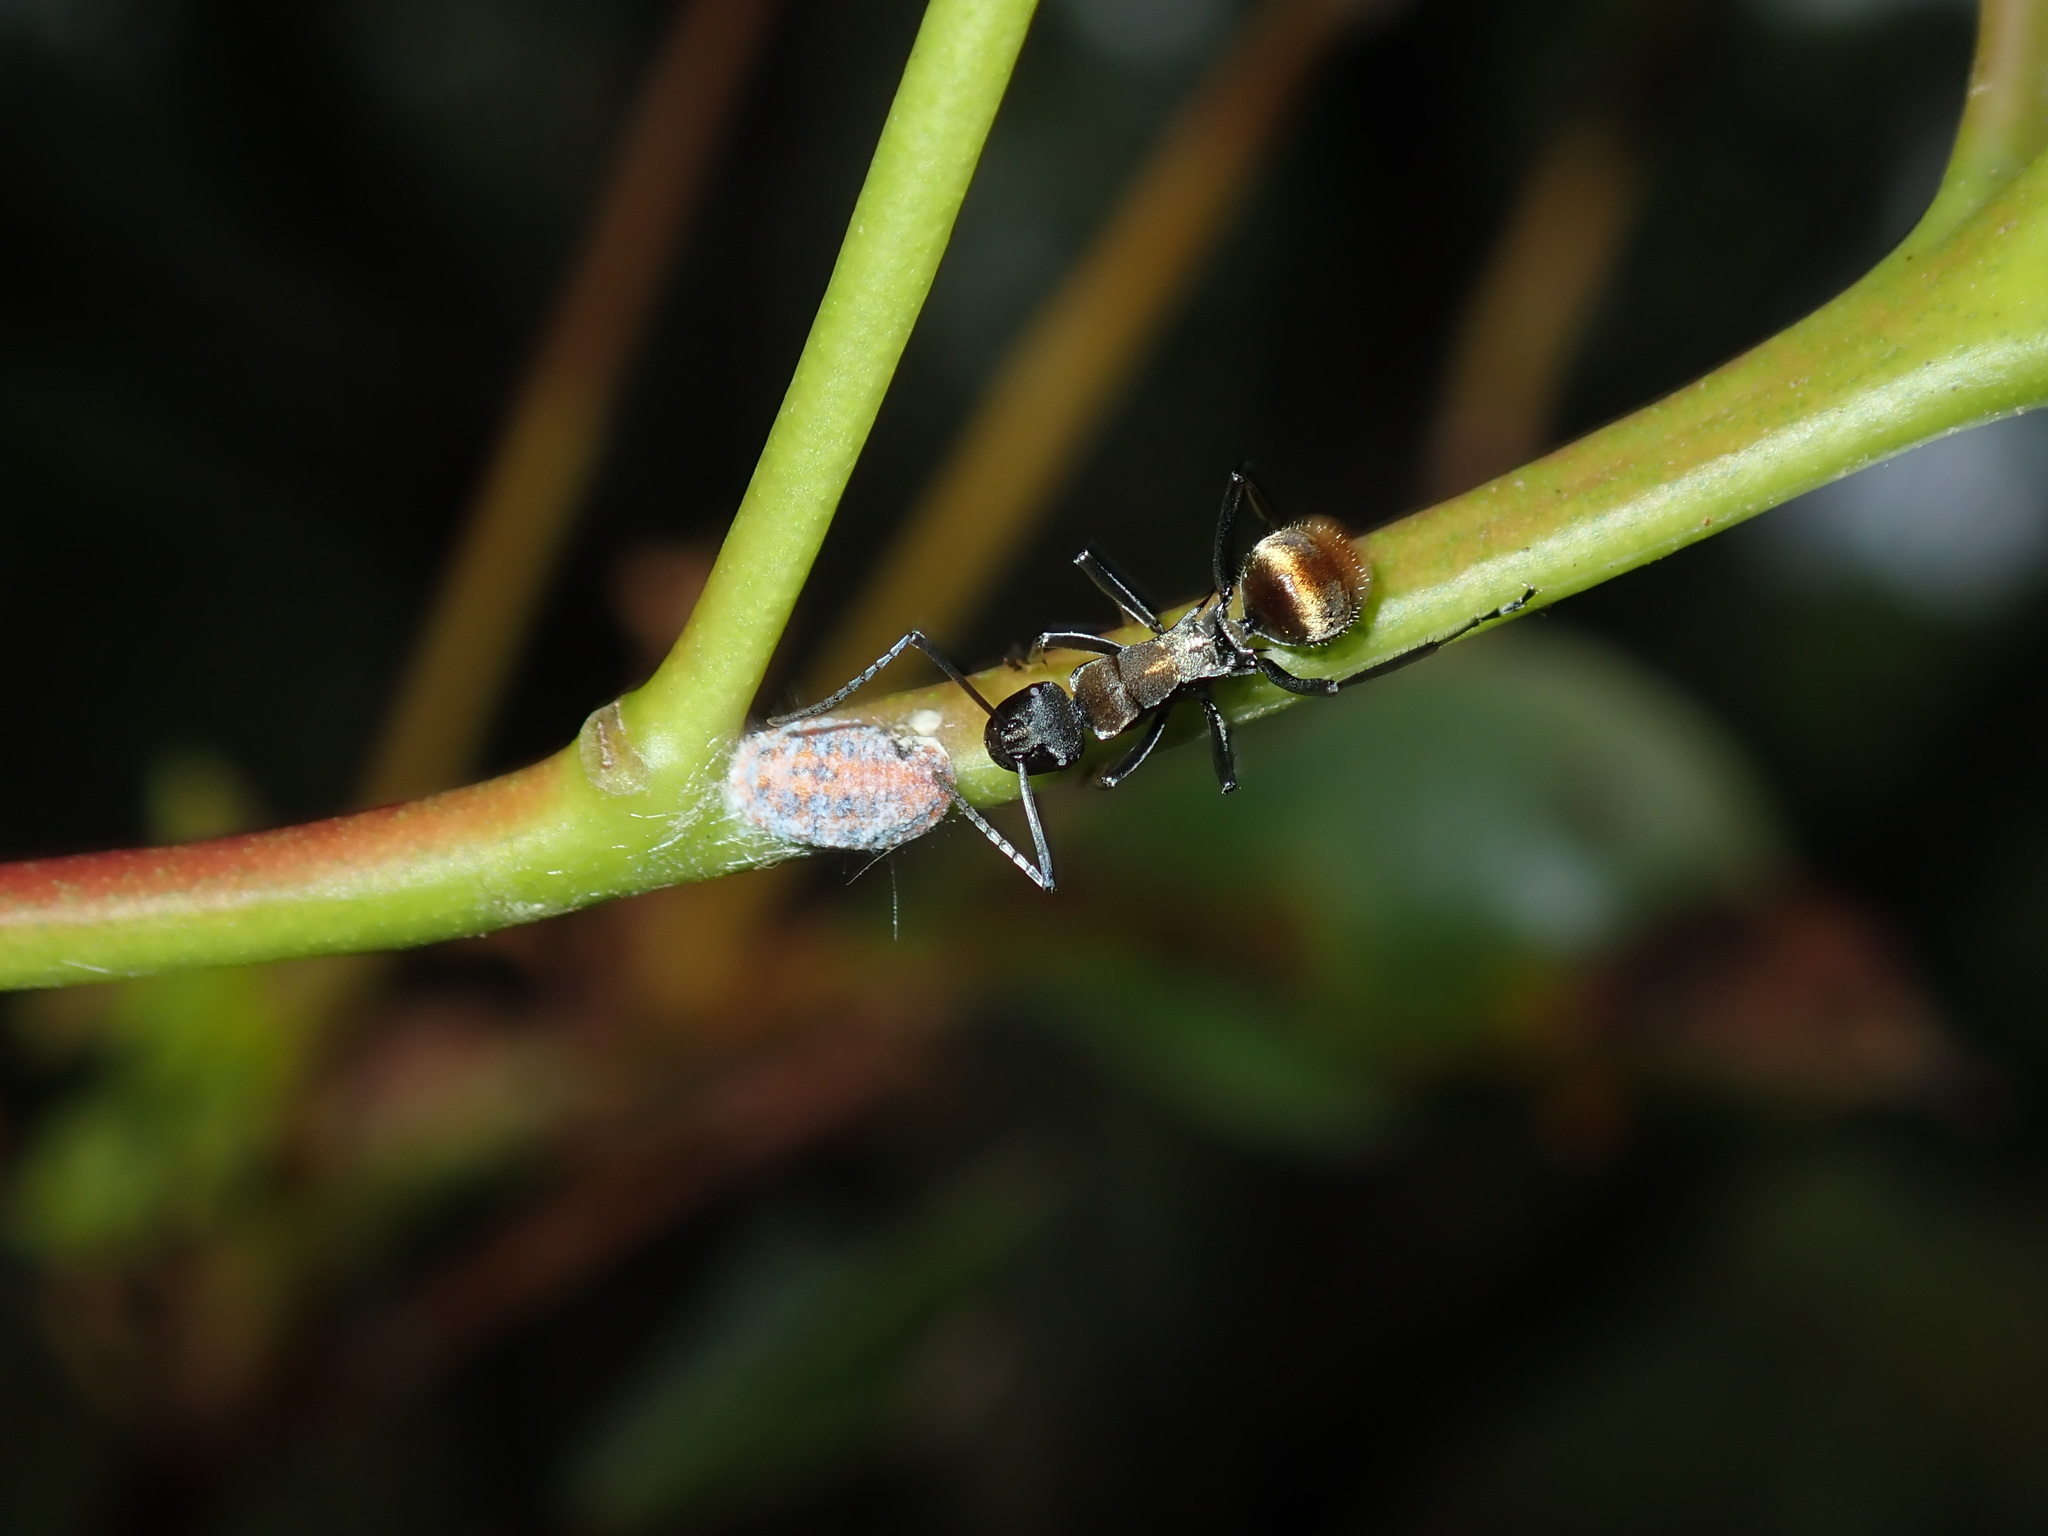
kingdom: Animalia
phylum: Arthropoda
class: Insecta
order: Hymenoptera
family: Formicidae
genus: Polyrhachis
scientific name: Polyrhachis ammon
